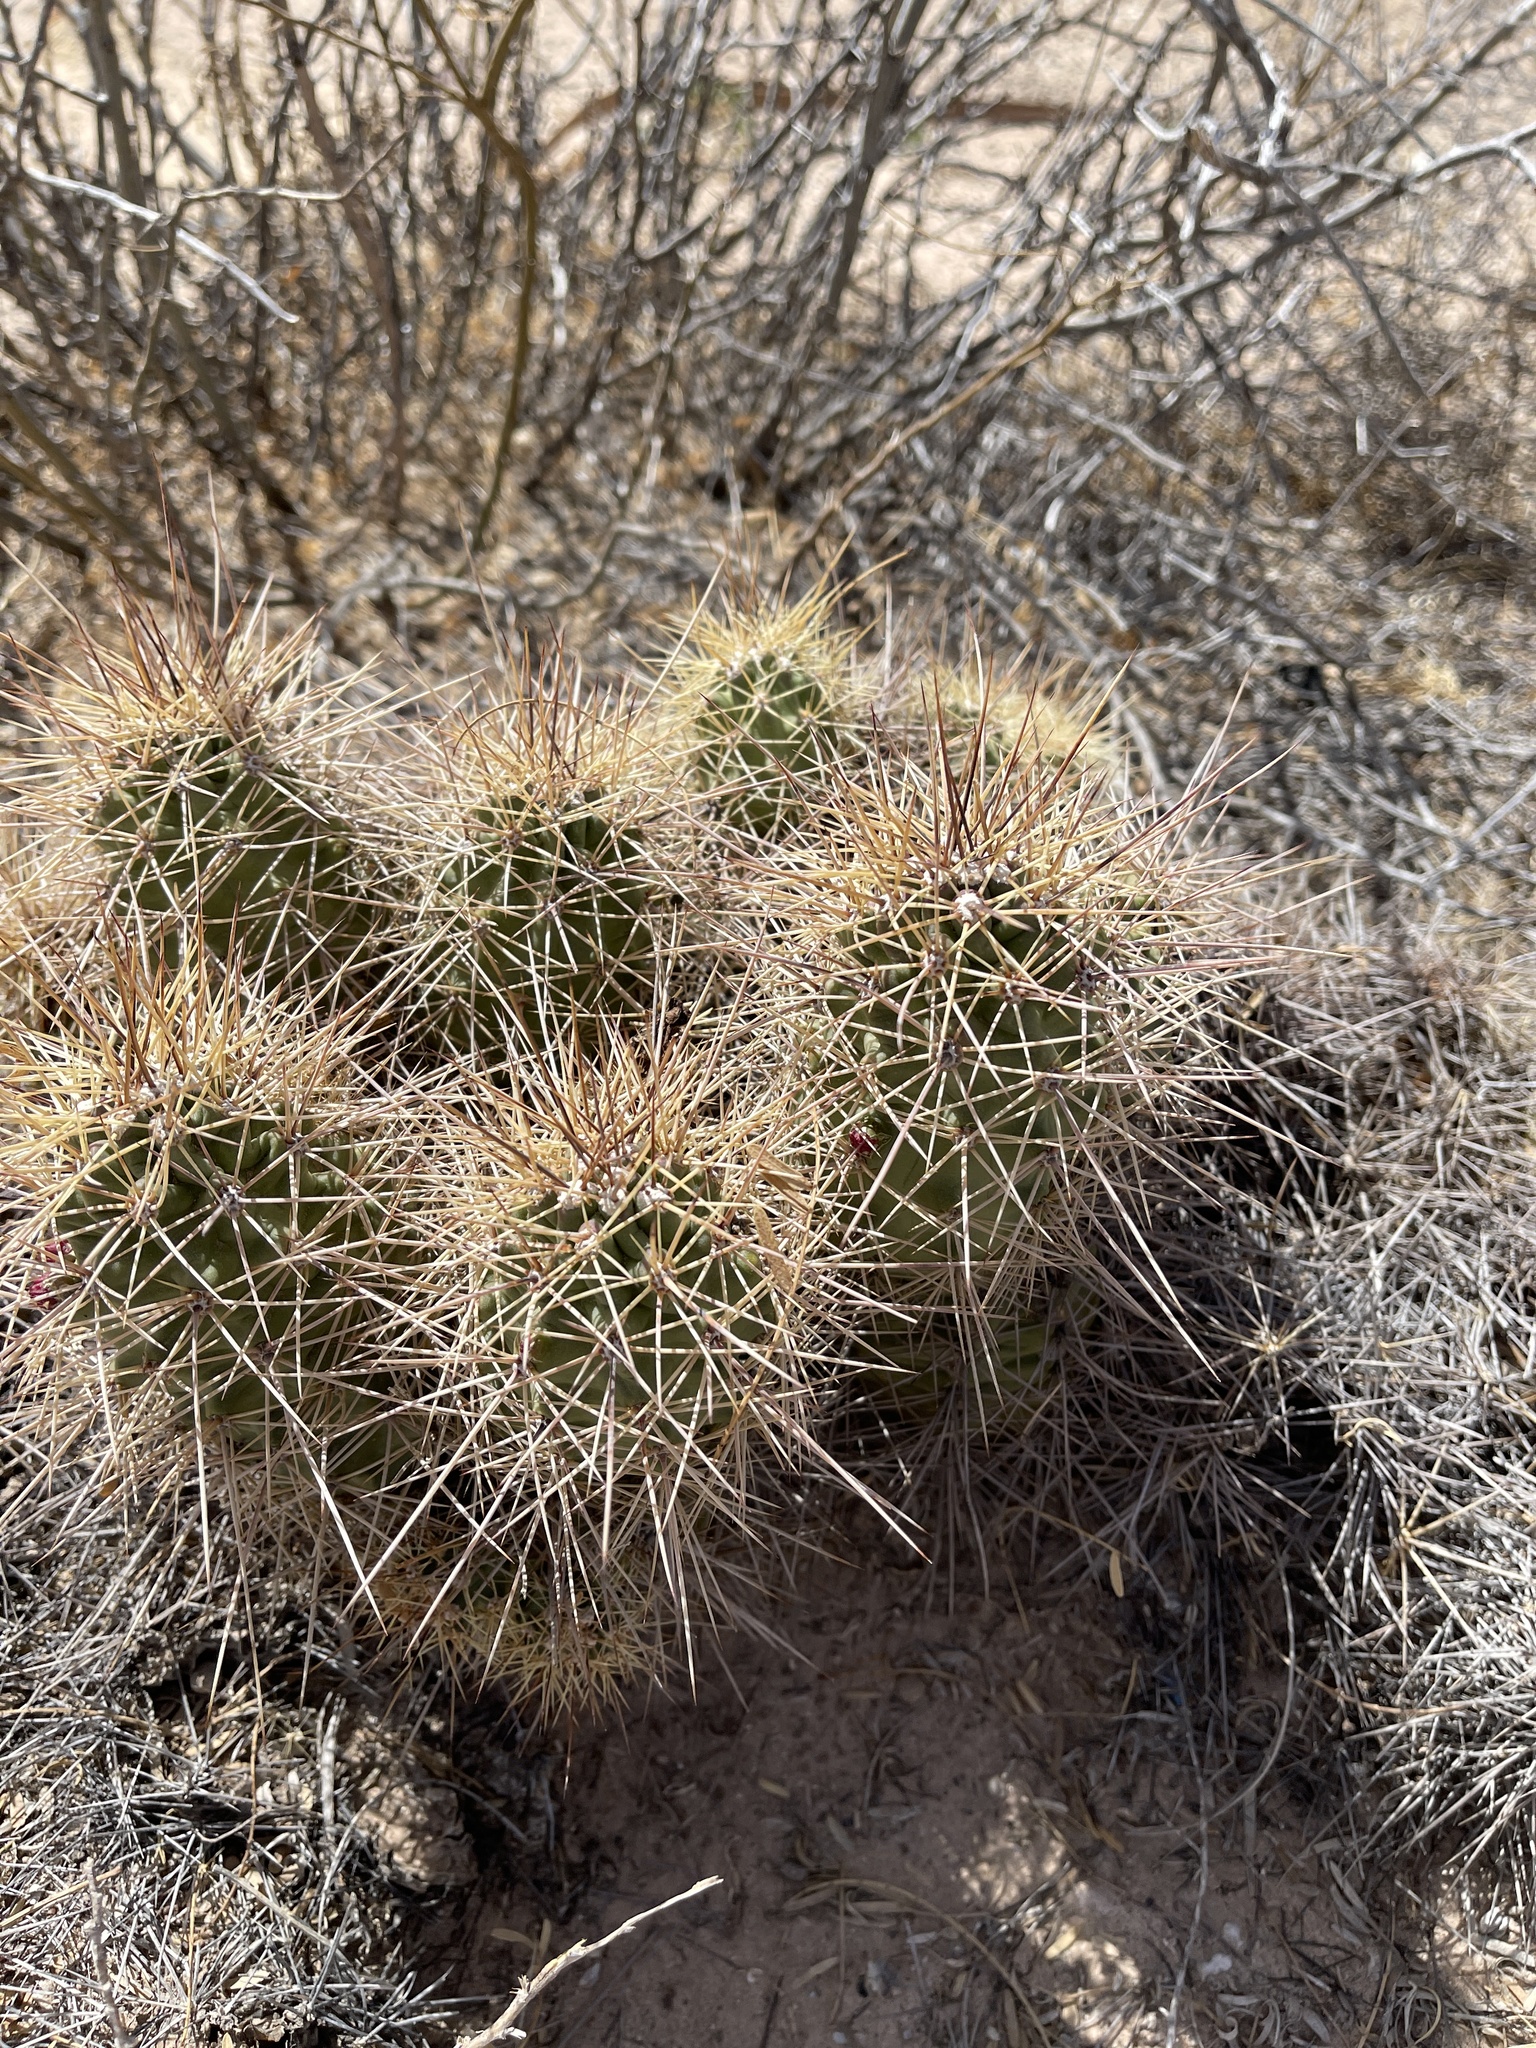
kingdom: Plantae
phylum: Tracheophyta
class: Magnoliopsida
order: Caryophyllales
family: Cactaceae
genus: Echinocereus
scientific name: Echinocereus coccineus
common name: Scarlet hedgehog cactus
